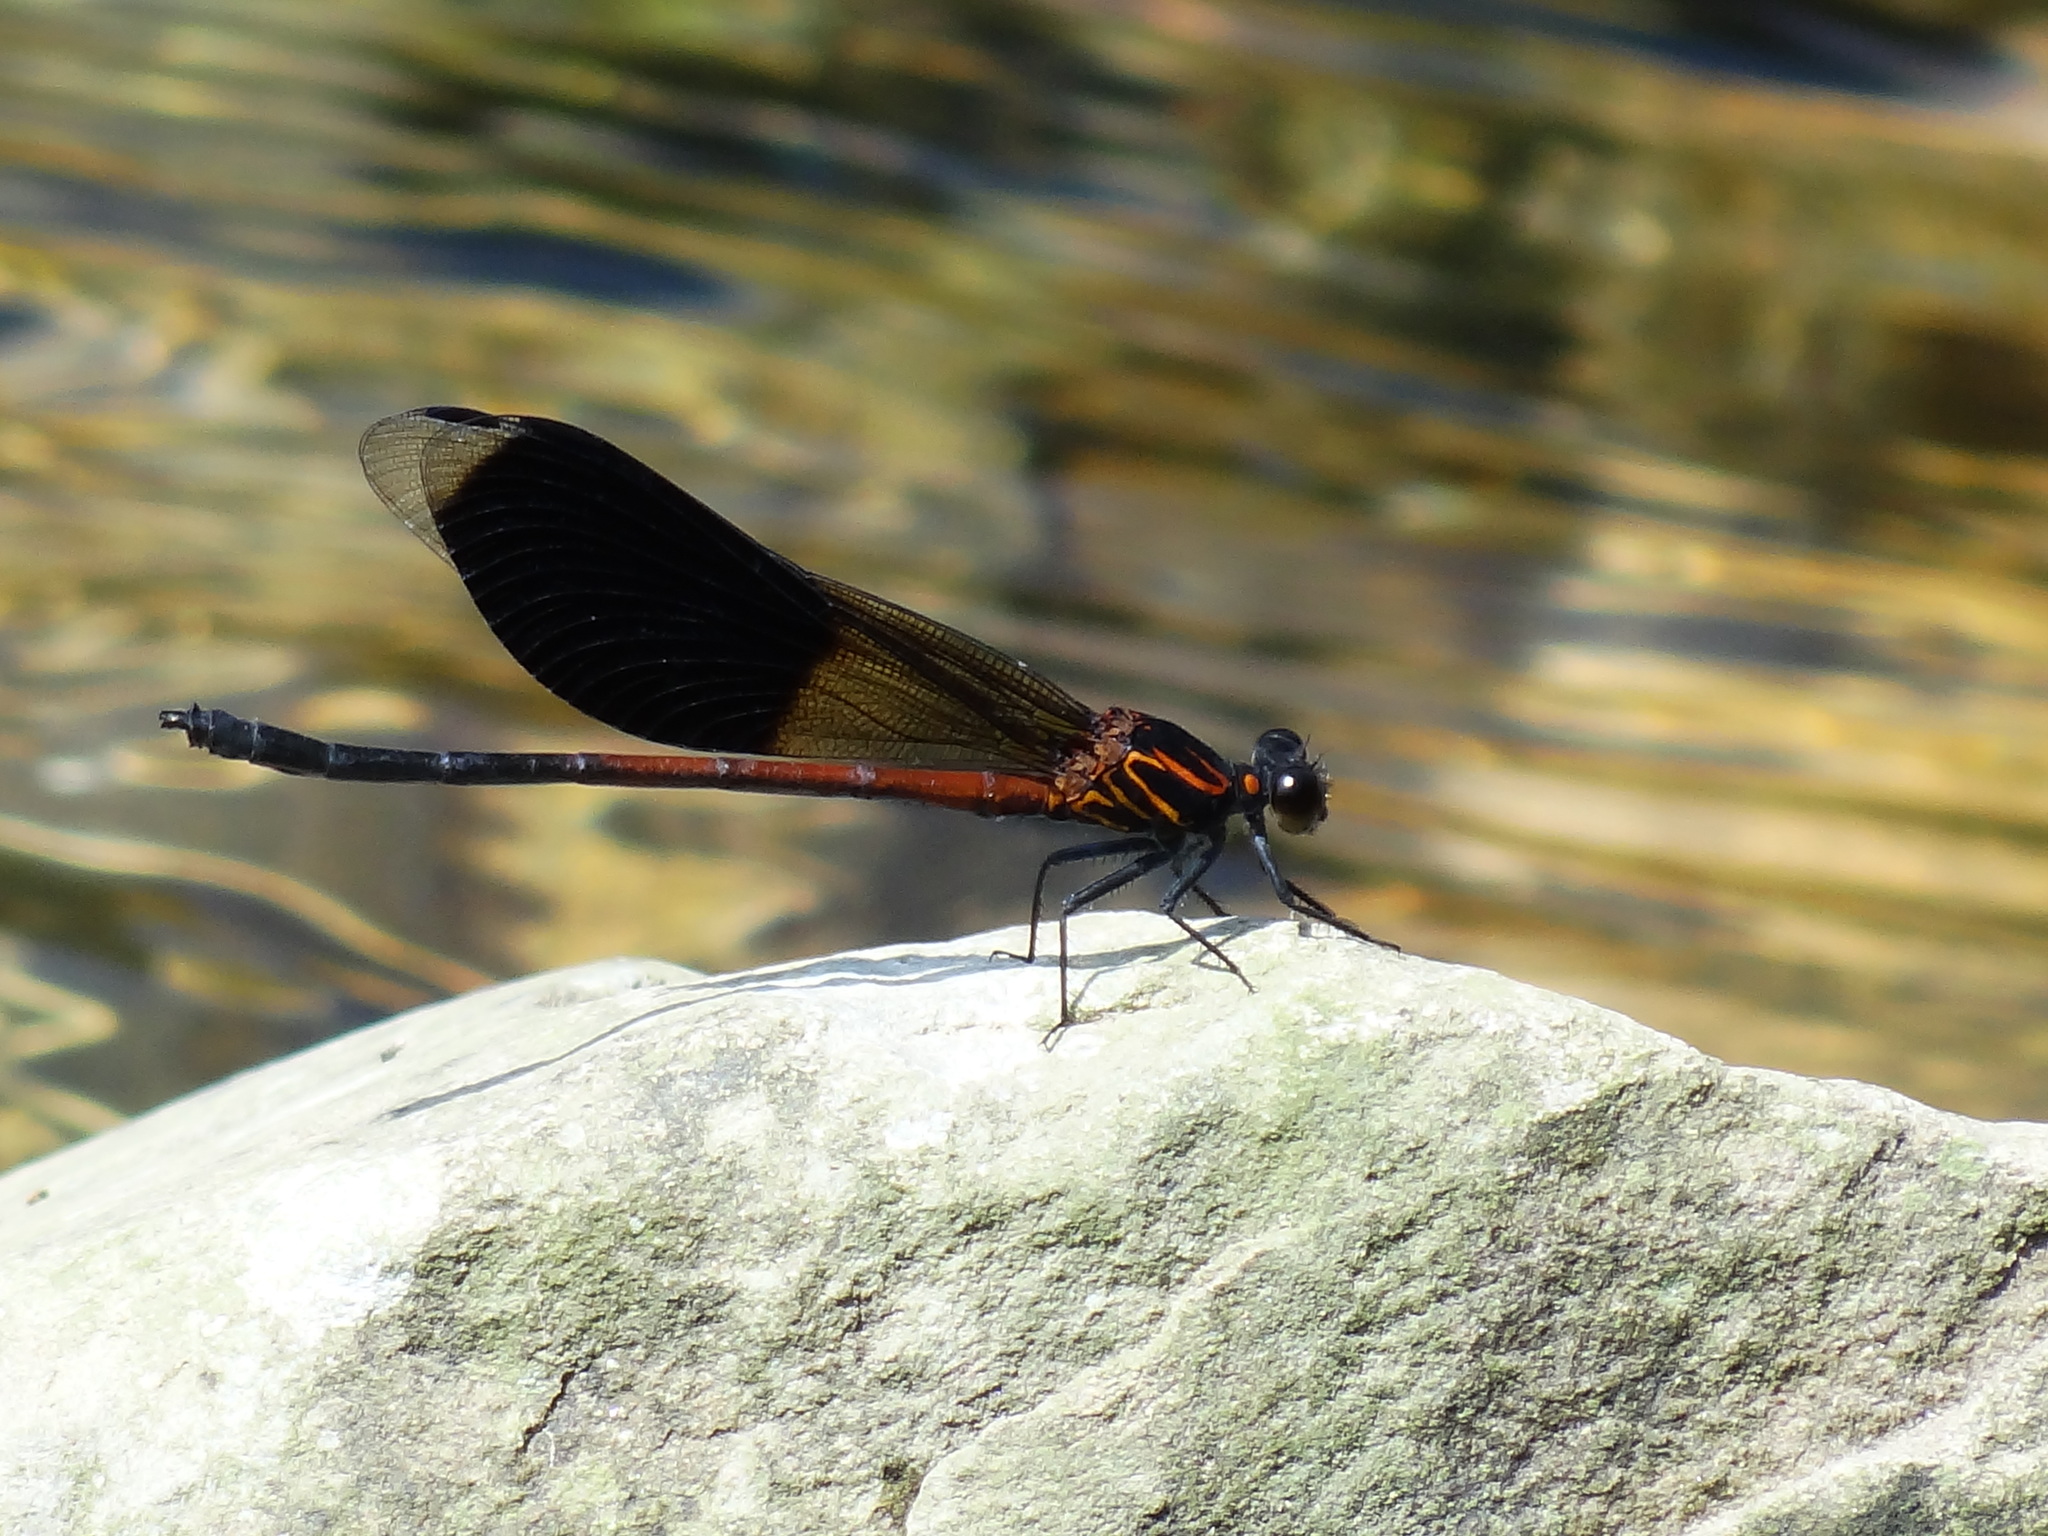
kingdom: Animalia
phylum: Arthropoda
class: Insecta
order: Odonata
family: Euphaeidae
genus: Euphaea
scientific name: Euphaea formosa
